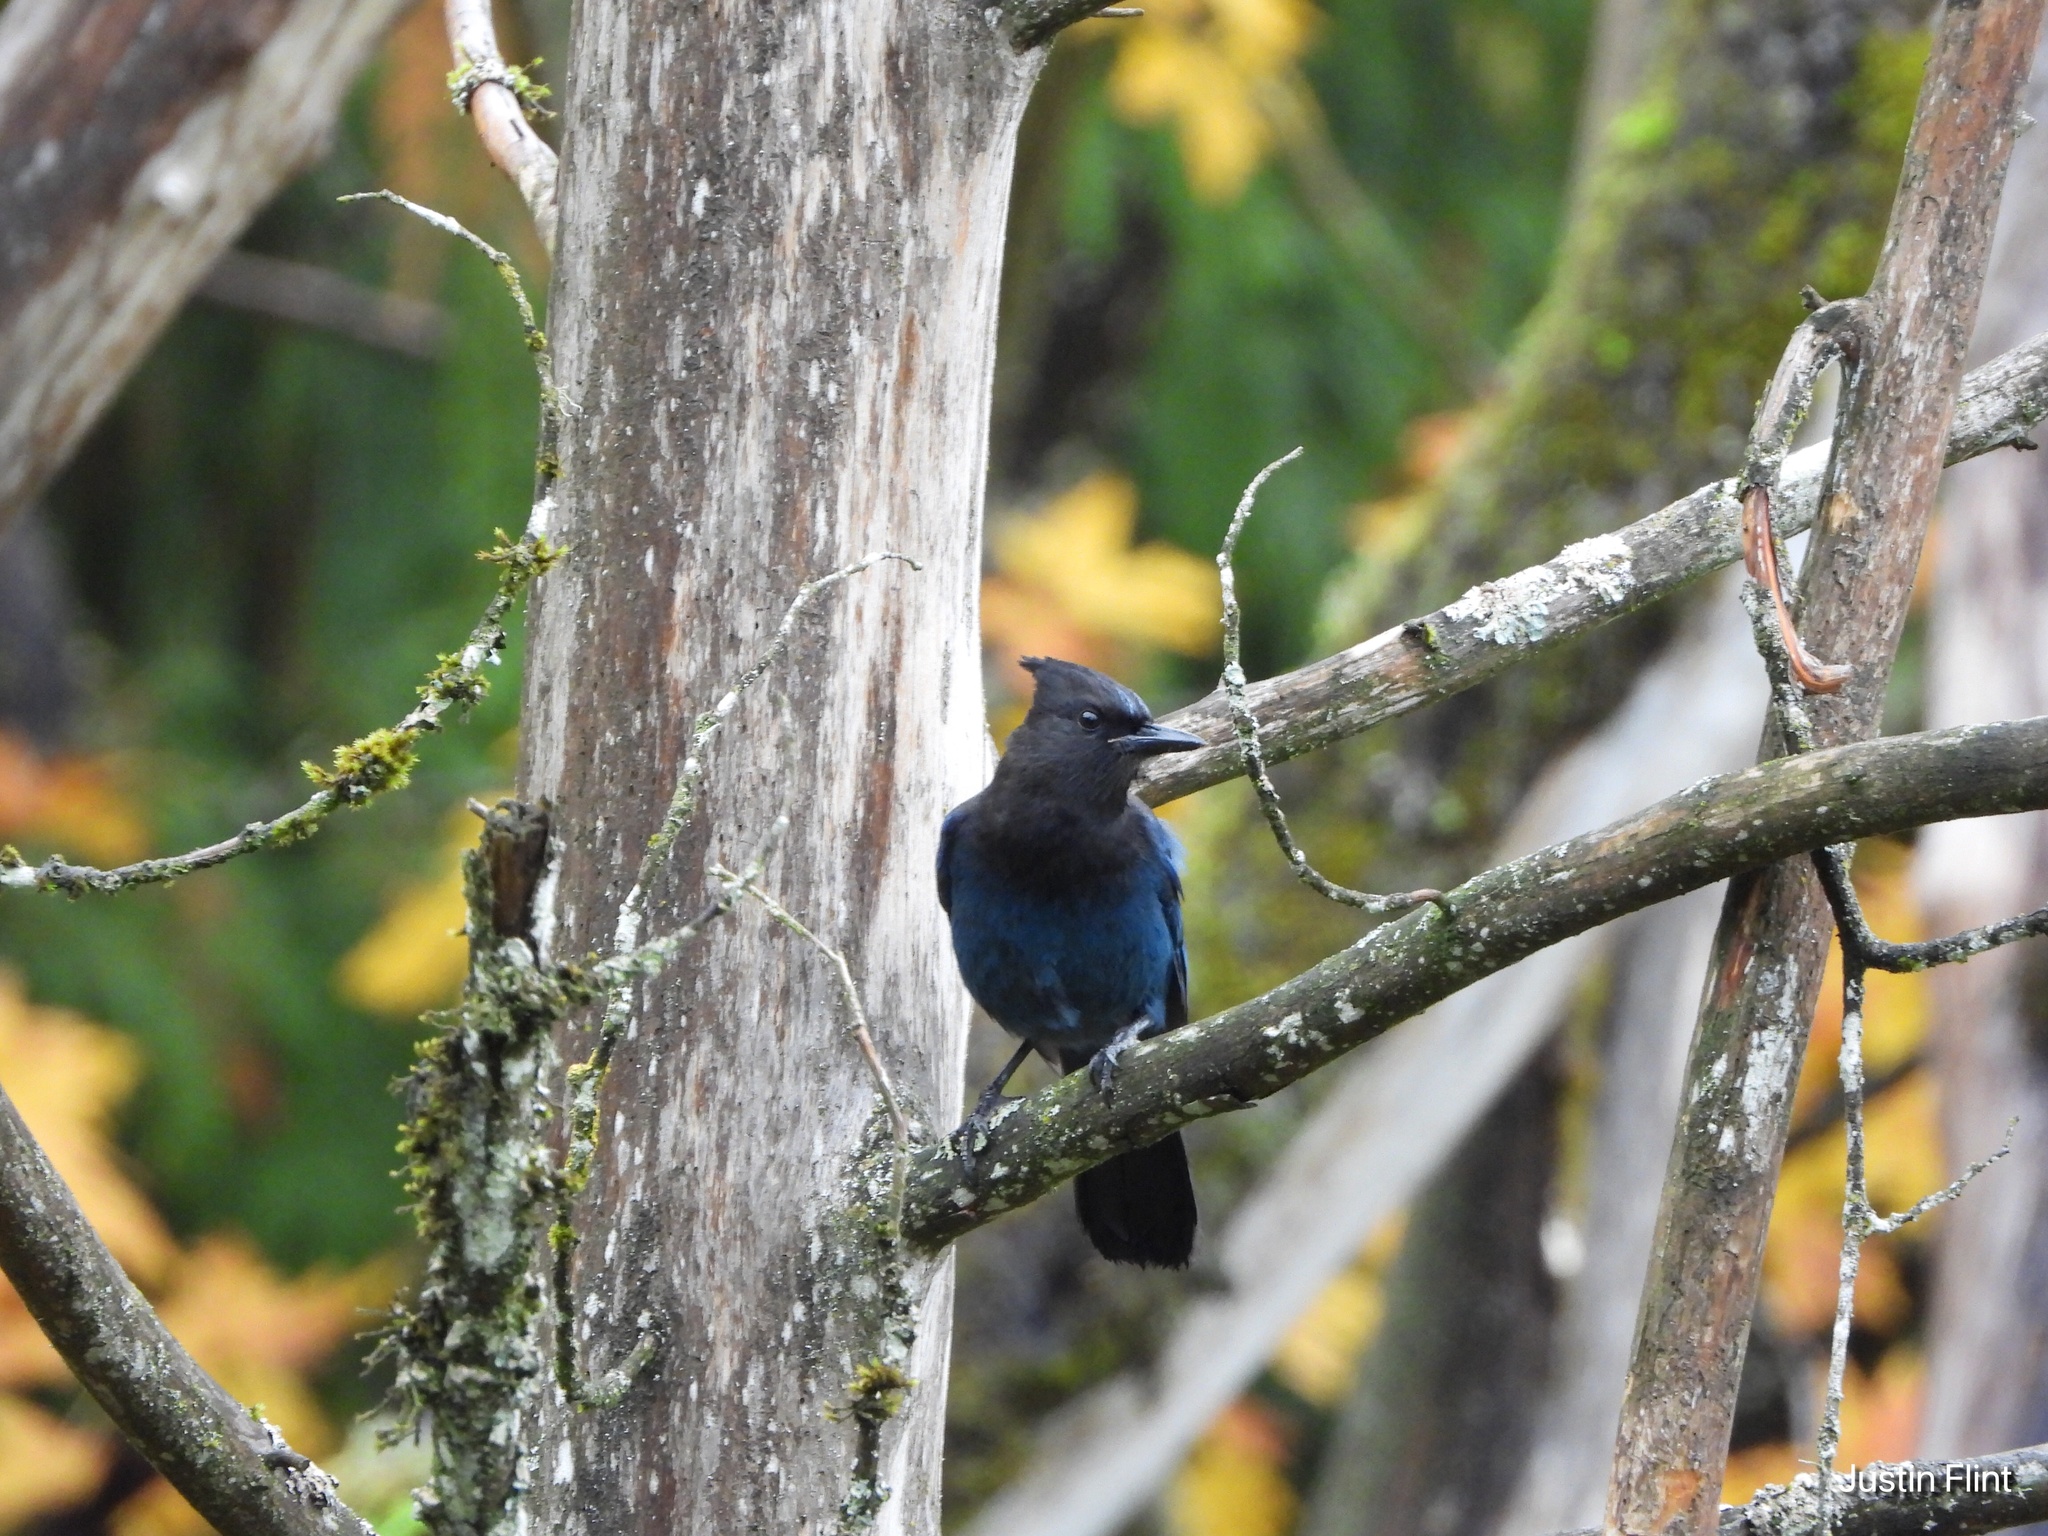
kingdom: Animalia
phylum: Chordata
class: Aves
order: Passeriformes
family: Corvidae
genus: Cyanocitta
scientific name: Cyanocitta stelleri
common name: Steller's jay
